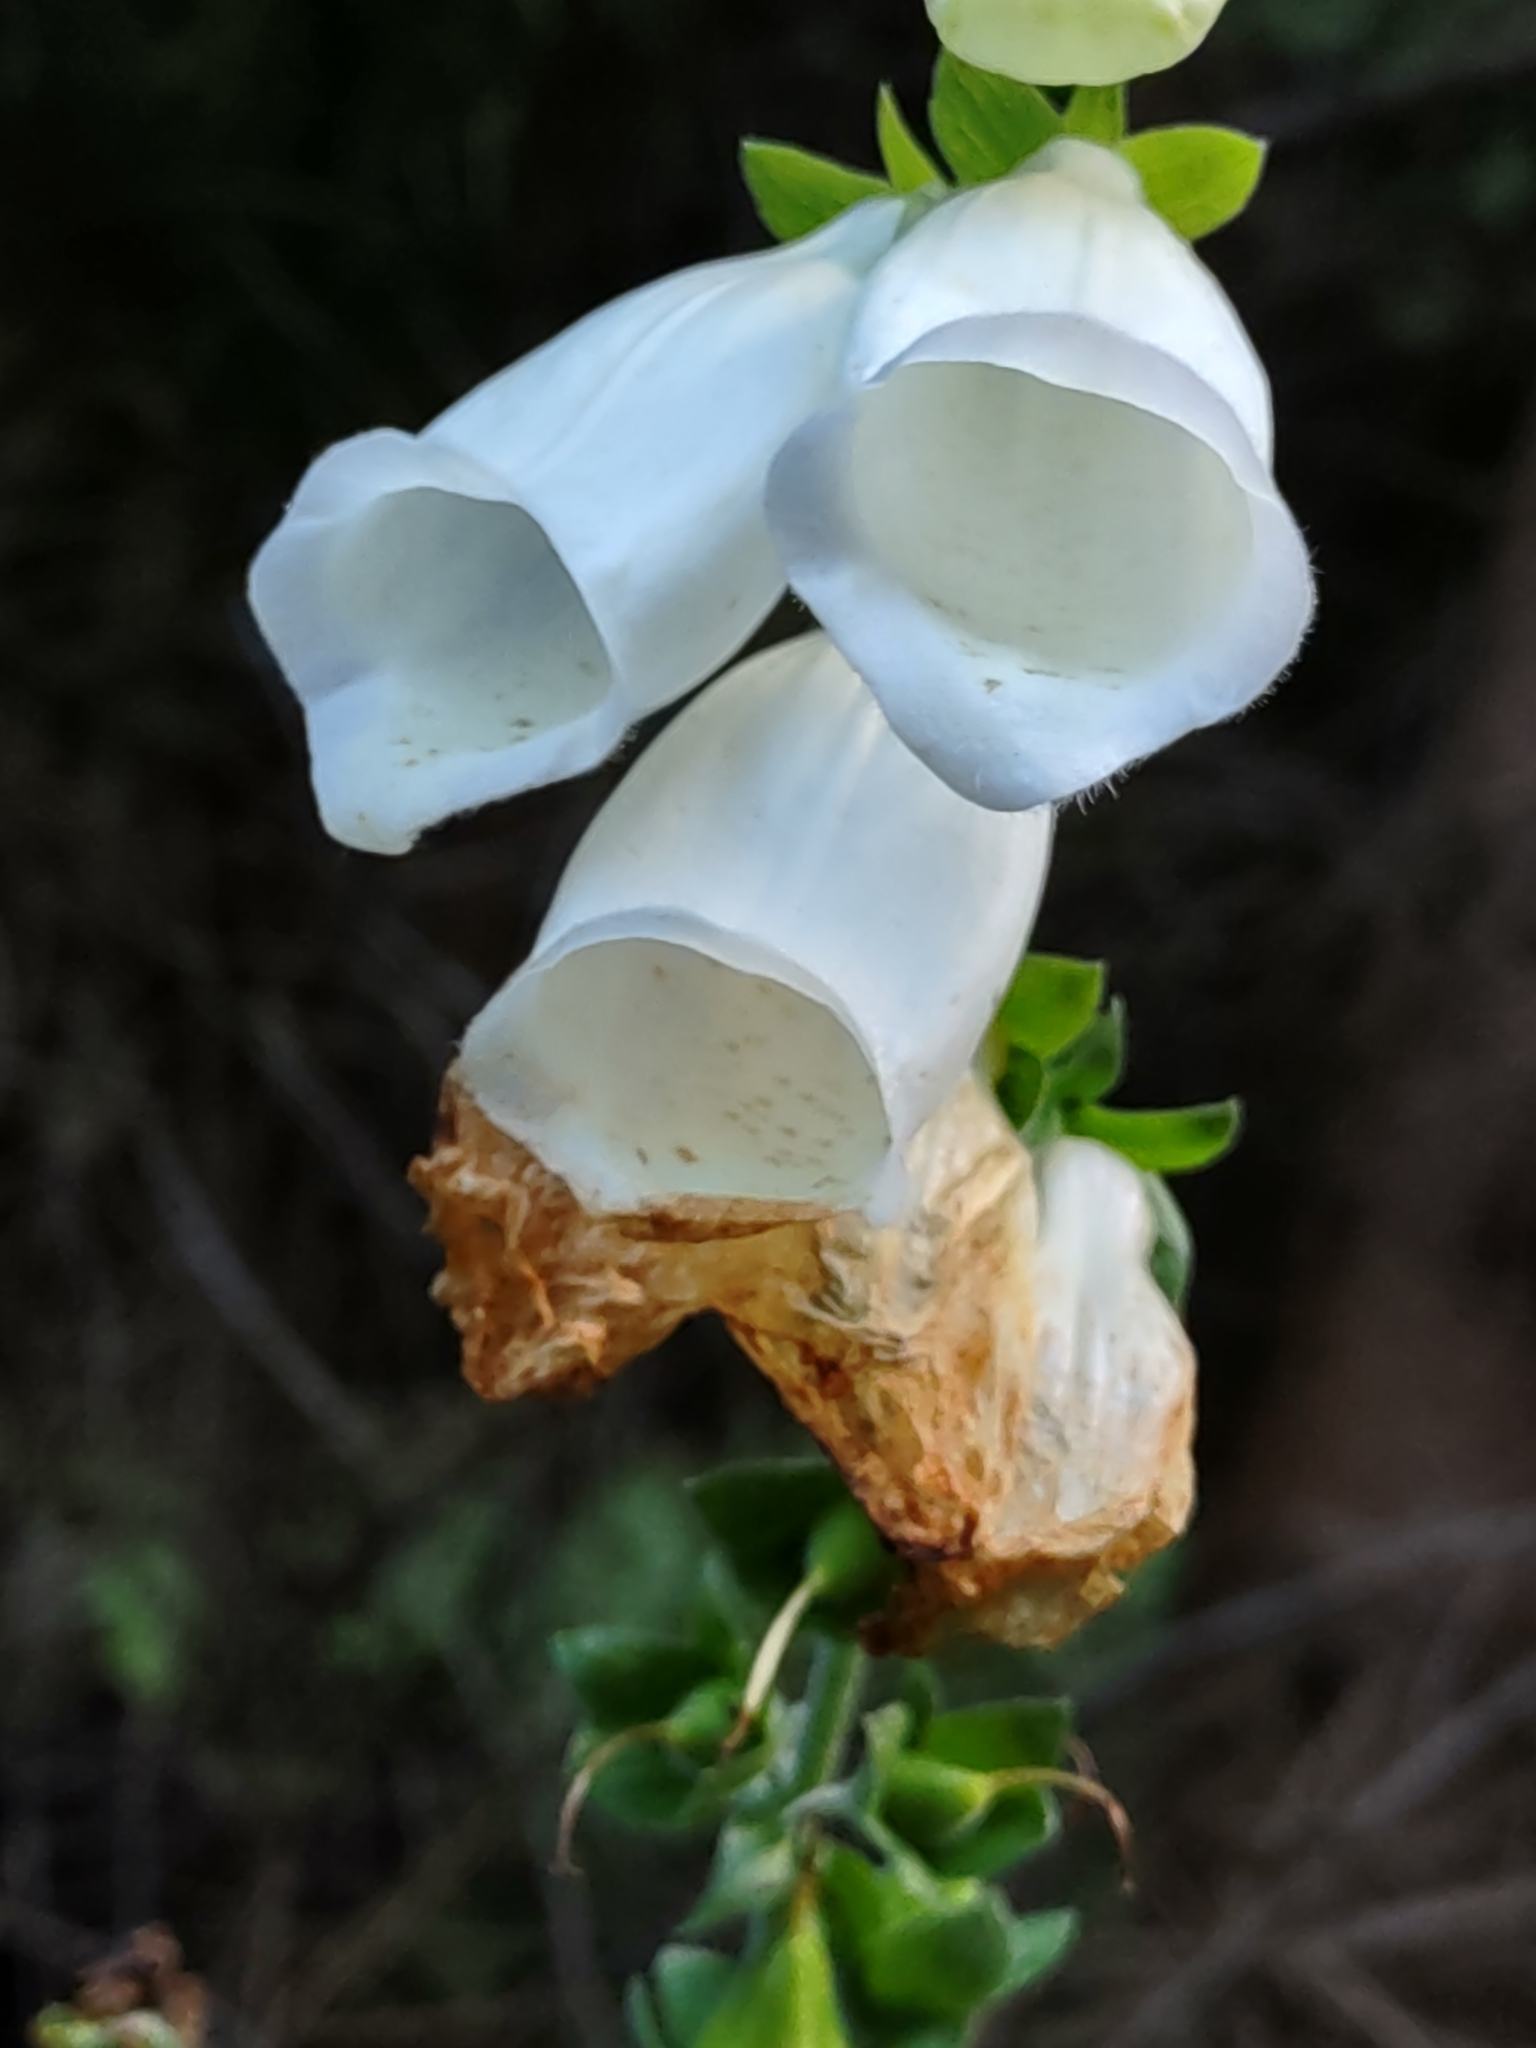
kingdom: Plantae
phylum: Tracheophyta
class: Magnoliopsida
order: Lamiales
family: Plantaginaceae
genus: Digitalis
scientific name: Digitalis purpurea
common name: Foxglove
